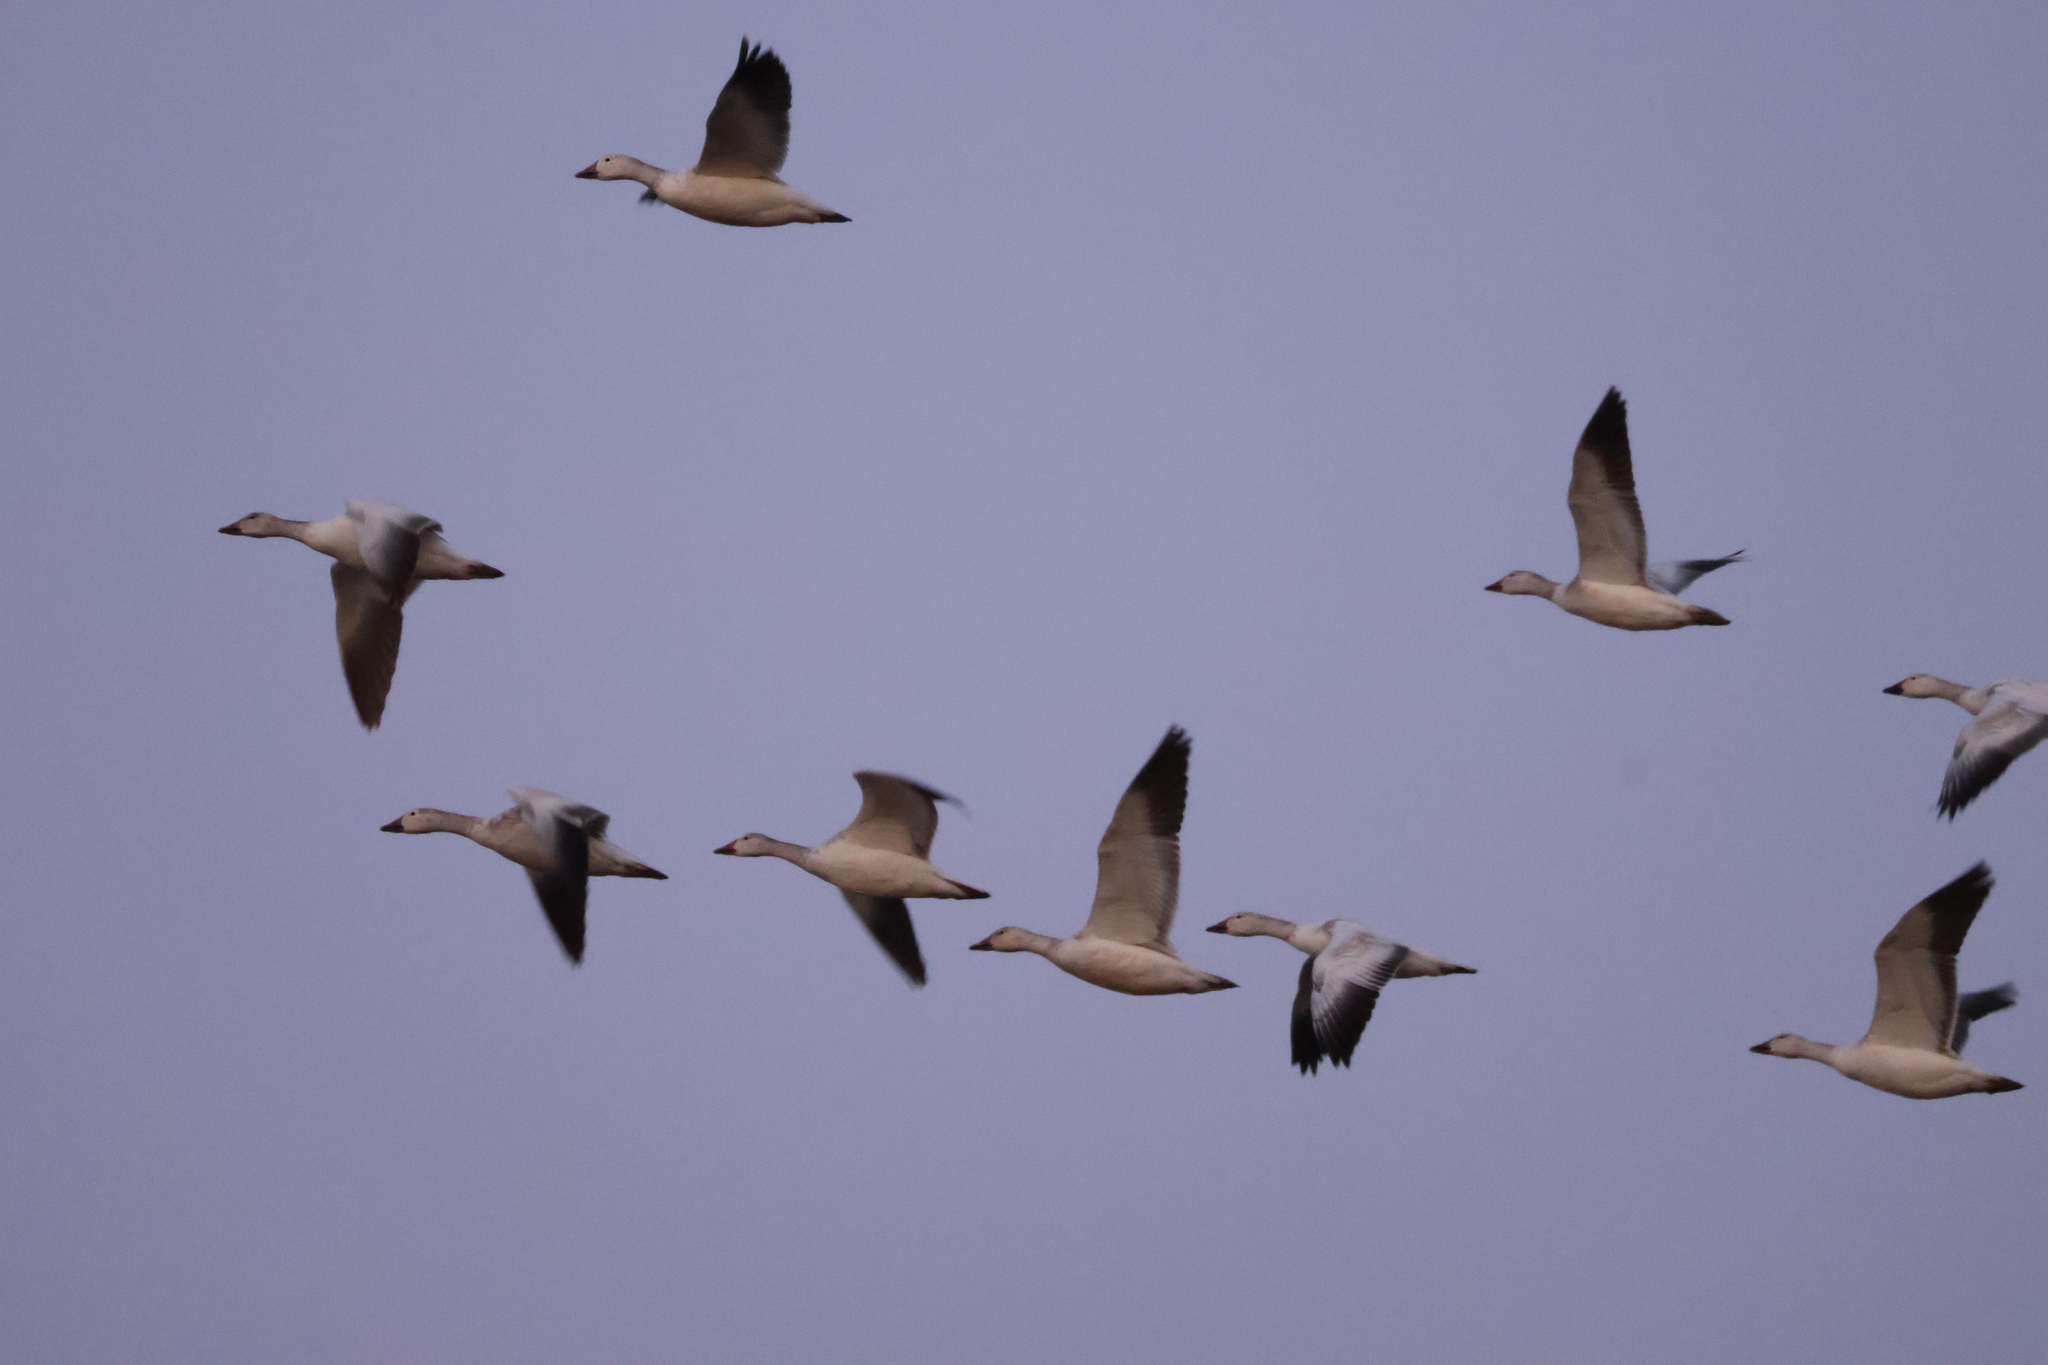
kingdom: Animalia
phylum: Chordata
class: Aves
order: Anseriformes
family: Anatidae
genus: Anser
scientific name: Anser caerulescens
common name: Snow goose
